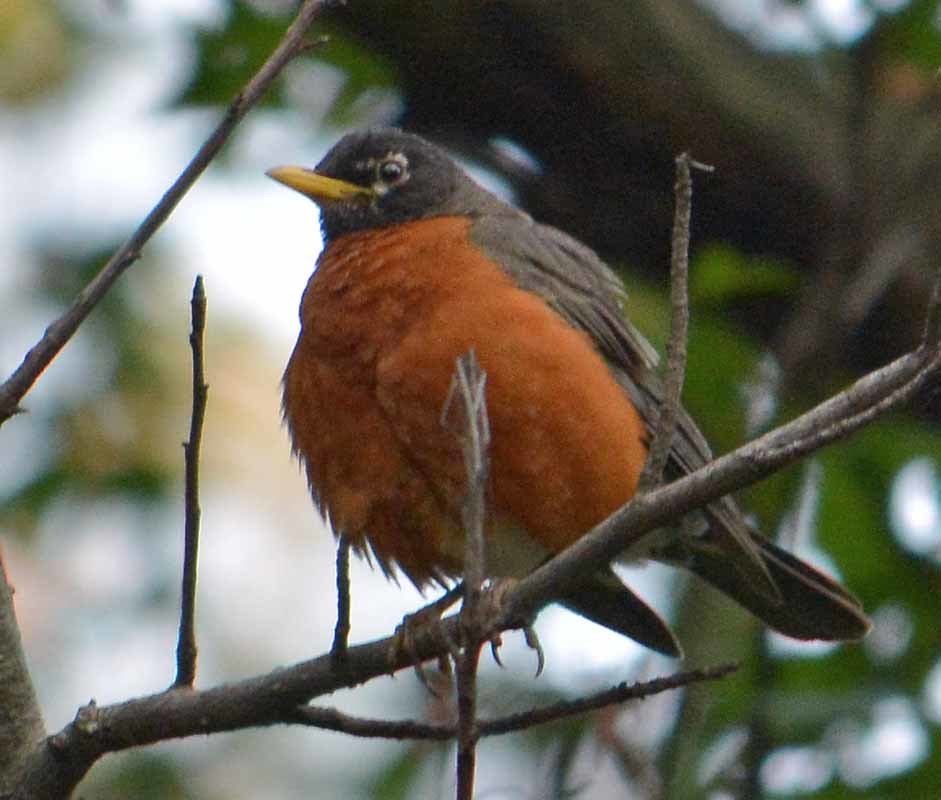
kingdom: Animalia
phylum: Chordata
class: Aves
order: Passeriformes
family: Turdidae
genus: Turdus
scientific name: Turdus migratorius
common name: American robin
